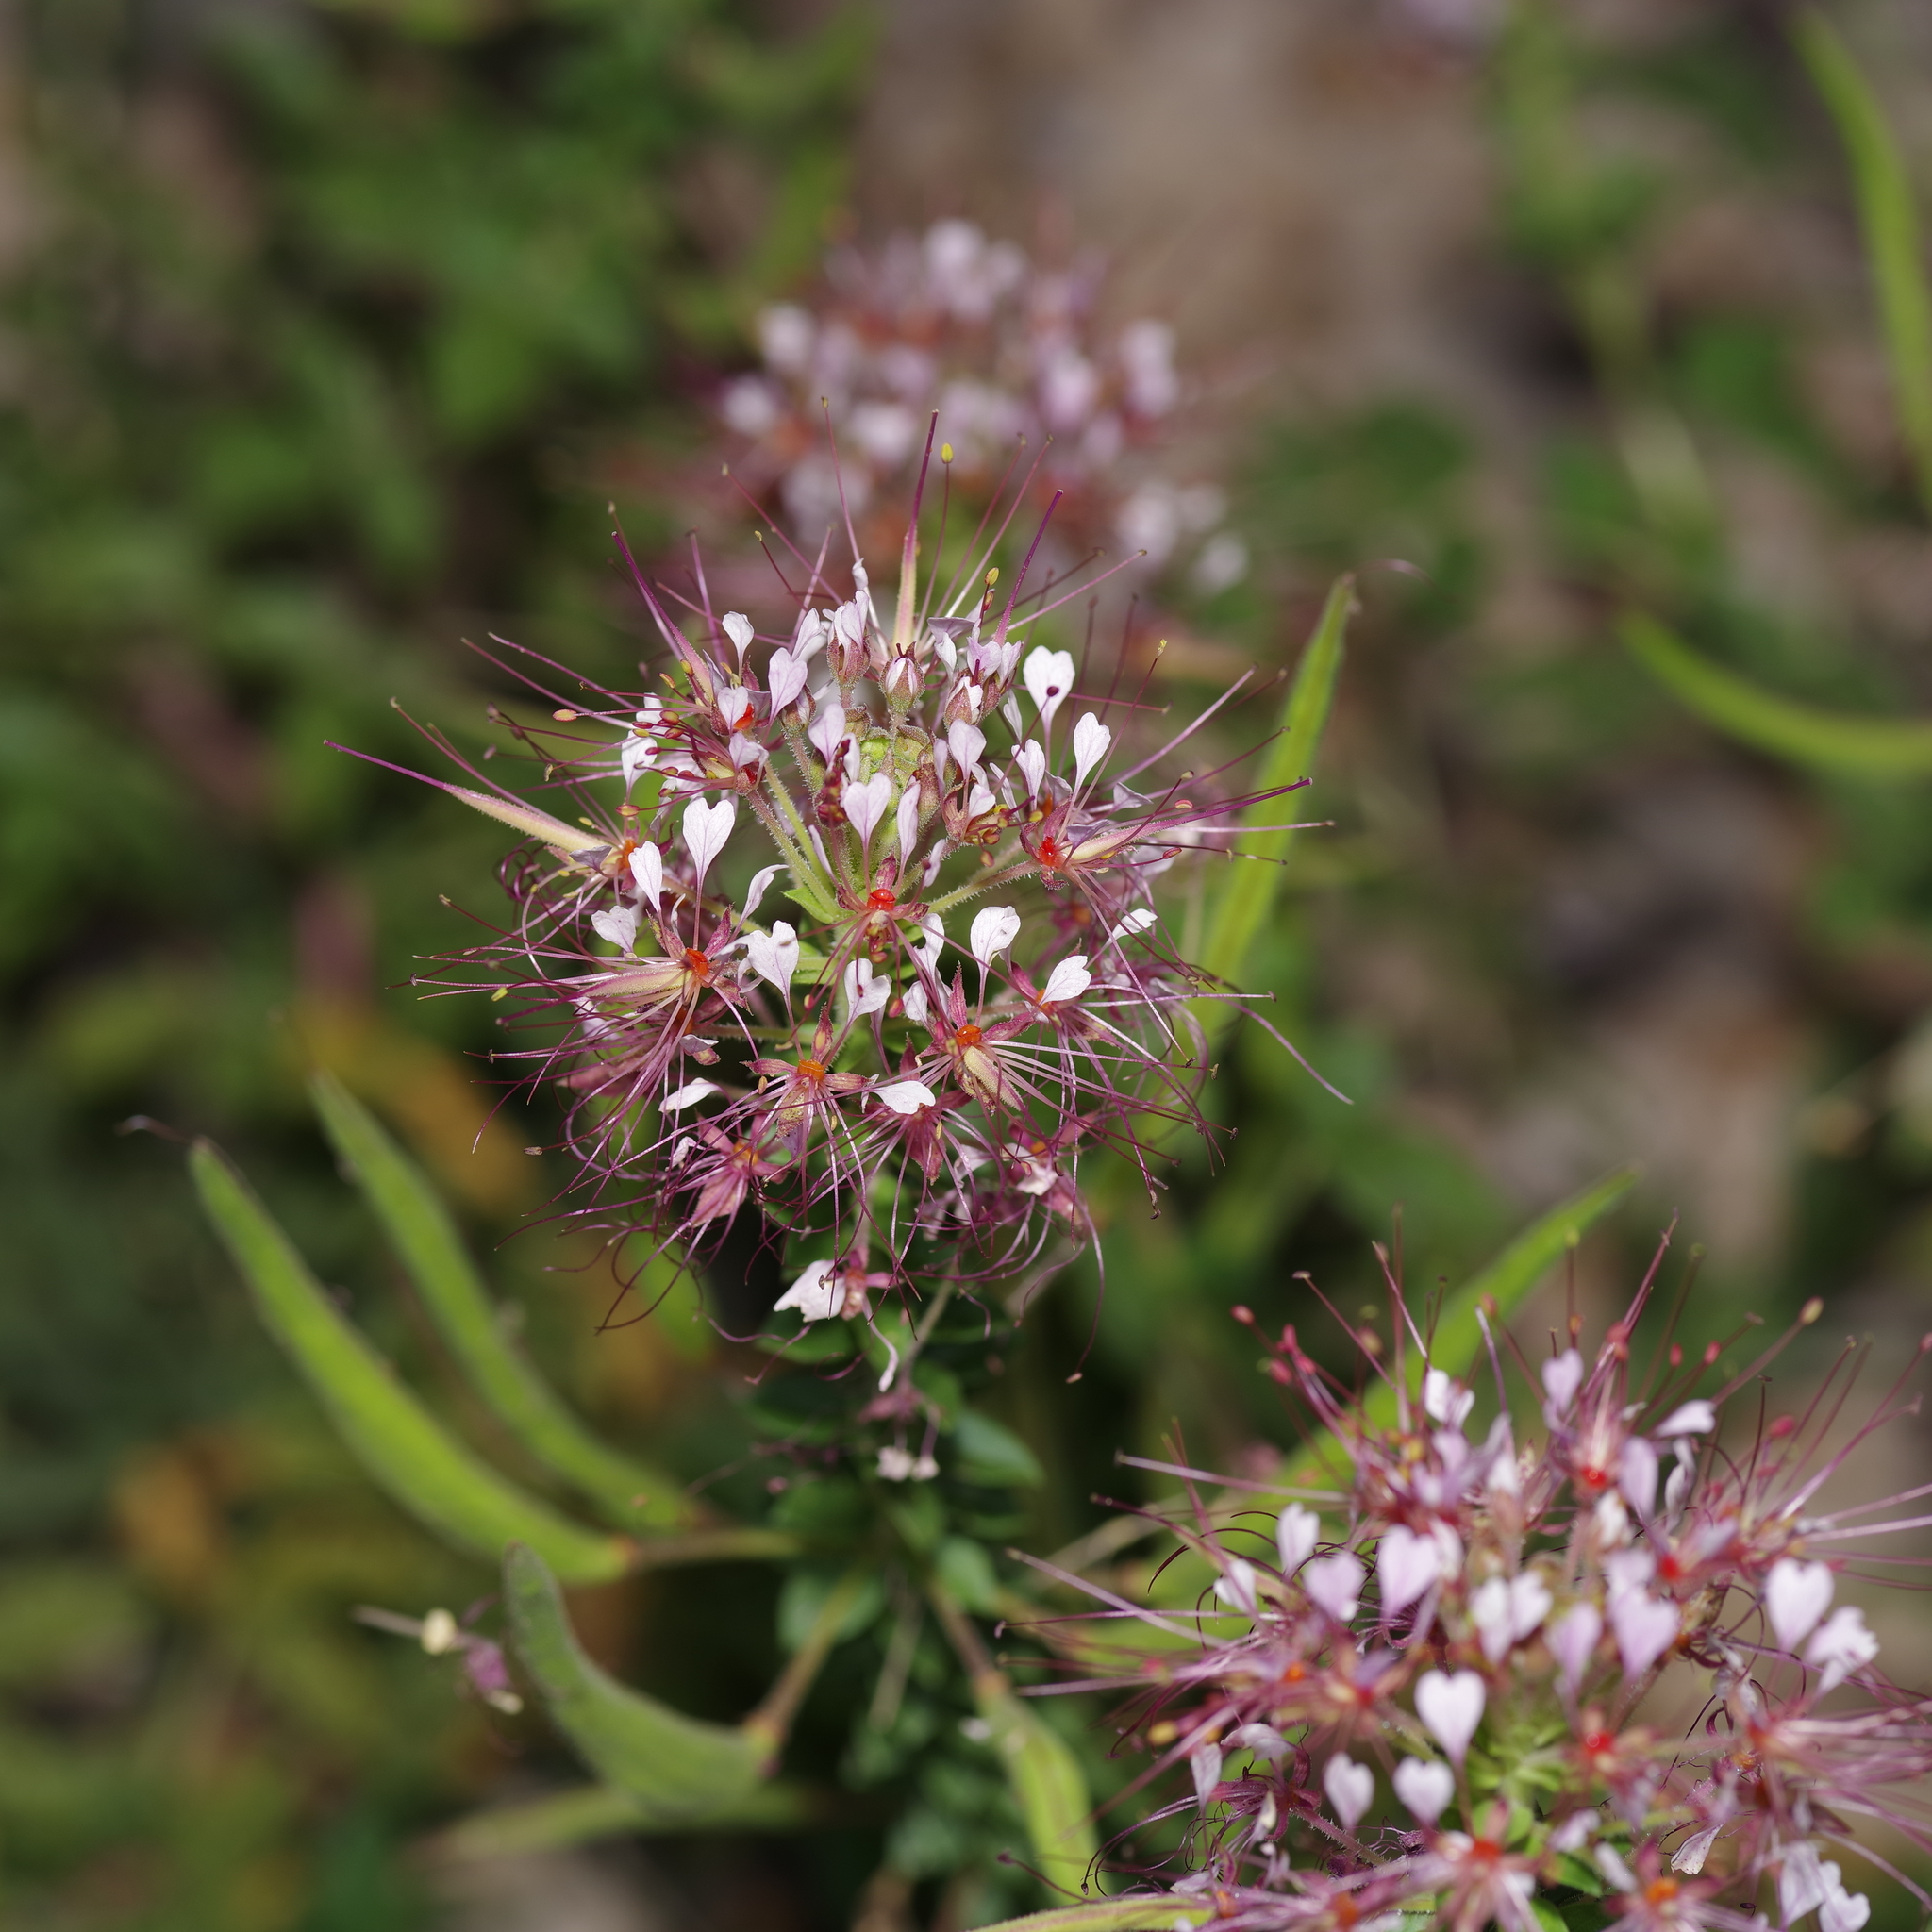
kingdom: Plantae
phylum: Tracheophyta
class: Magnoliopsida
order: Brassicales
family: Cleomaceae
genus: Polanisia
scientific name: Polanisia dodecandra
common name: Clammyweed
